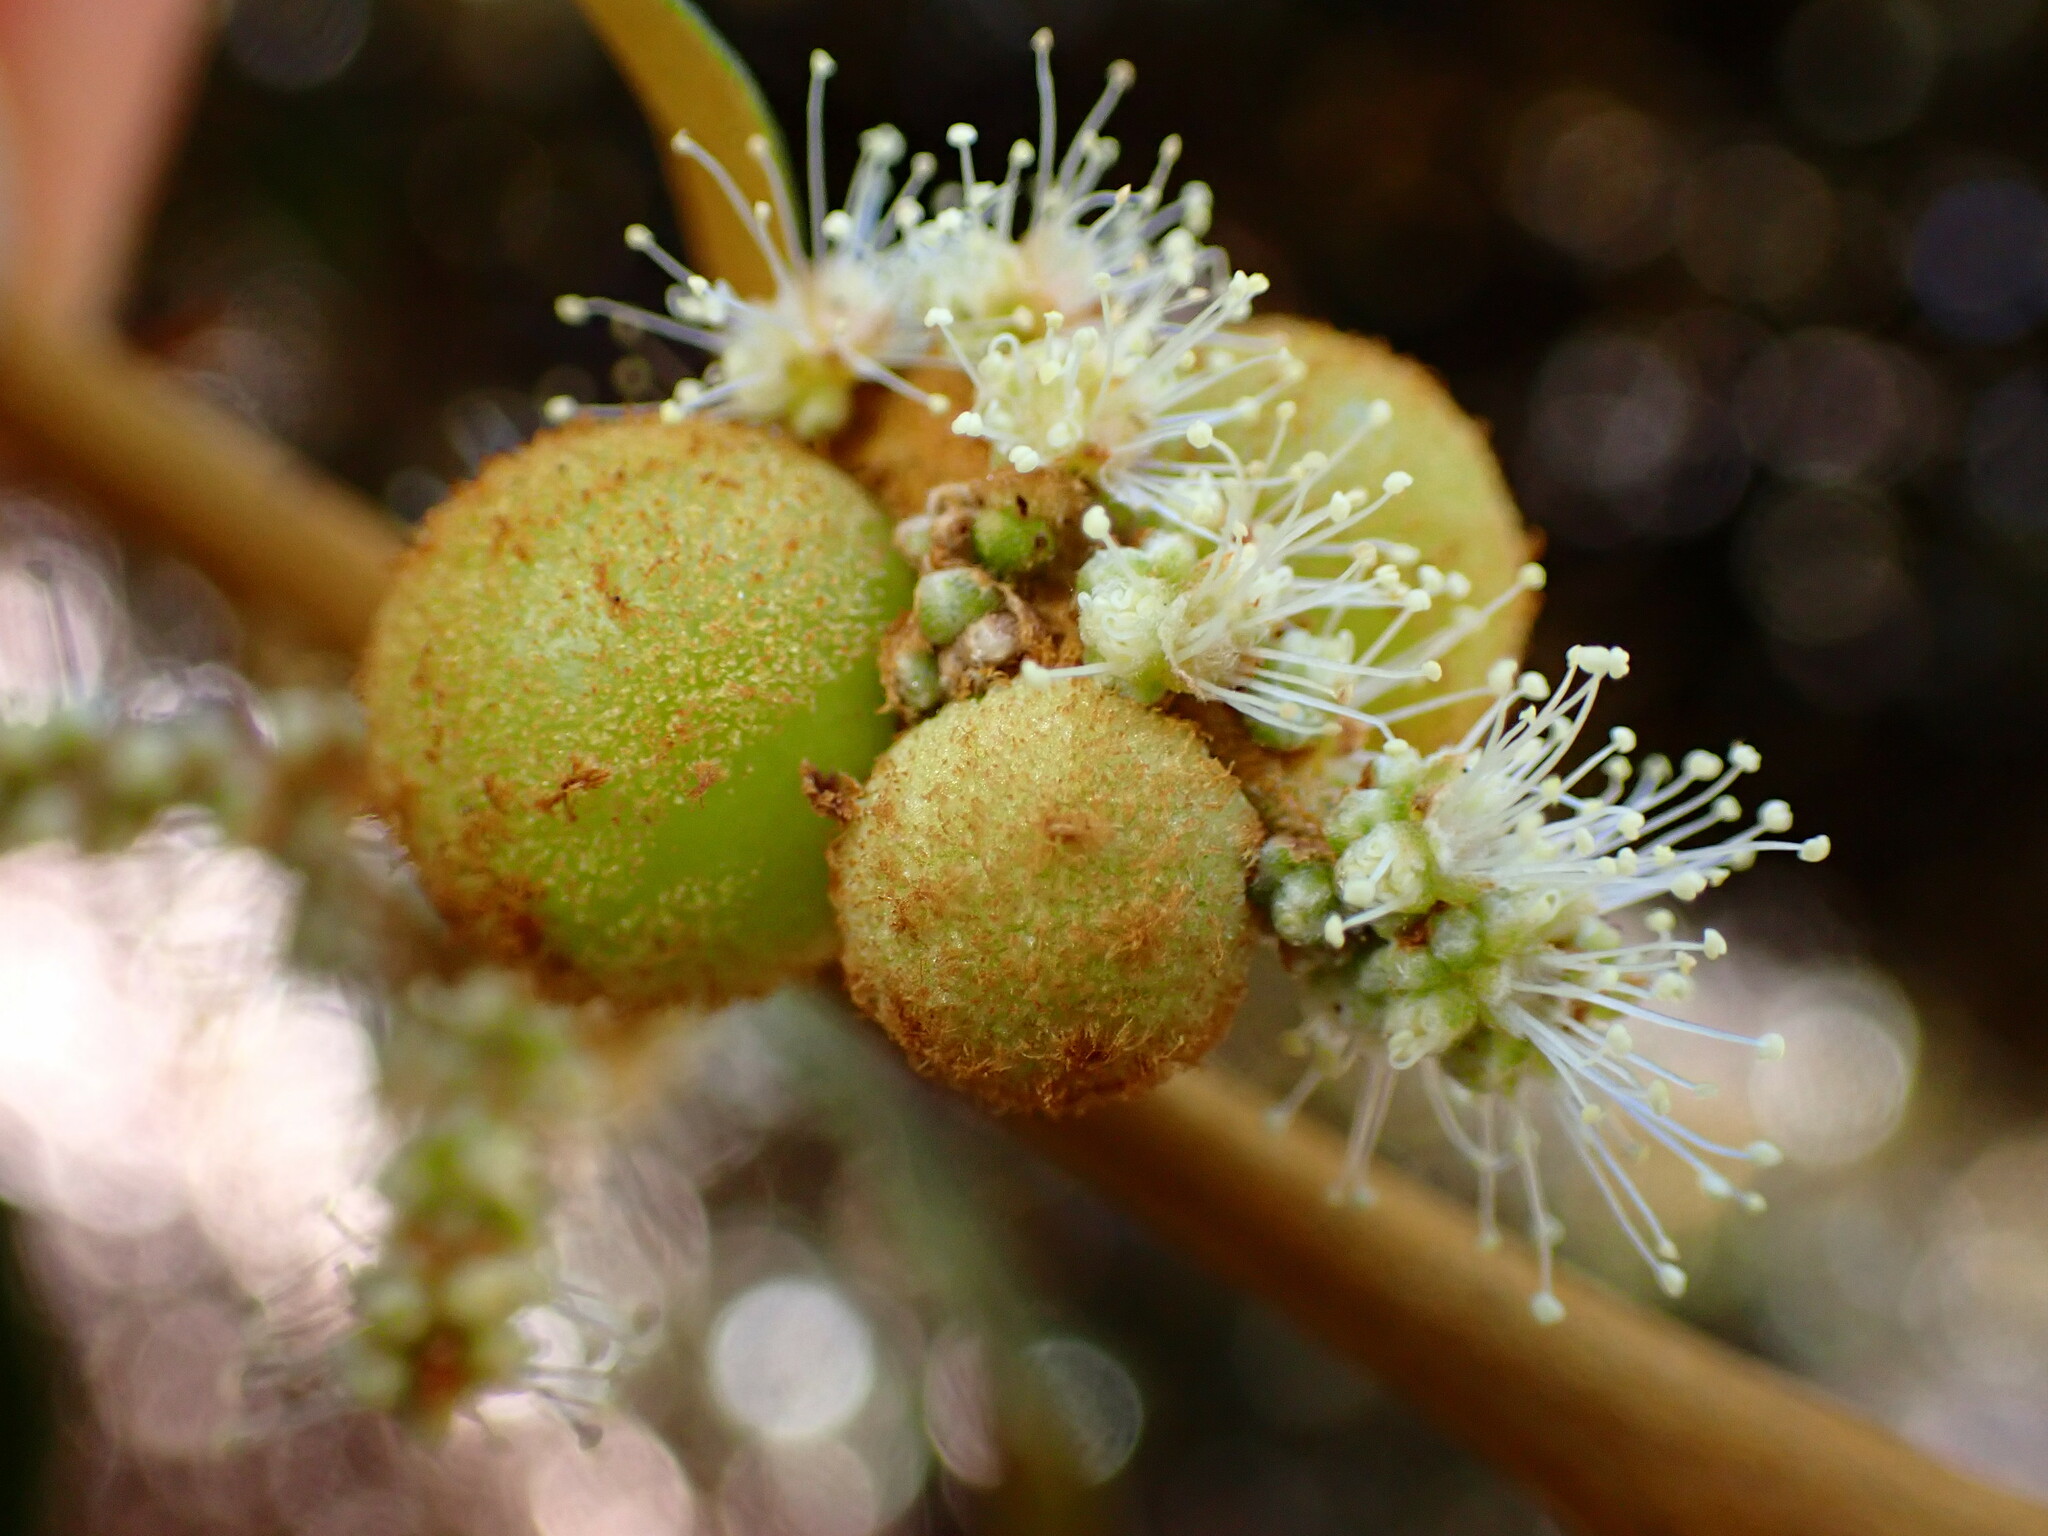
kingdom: Animalia
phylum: Arthropoda
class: Insecta
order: Hymenoptera
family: Cynipidae
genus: Synergus
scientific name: Synergus castanopsidis
